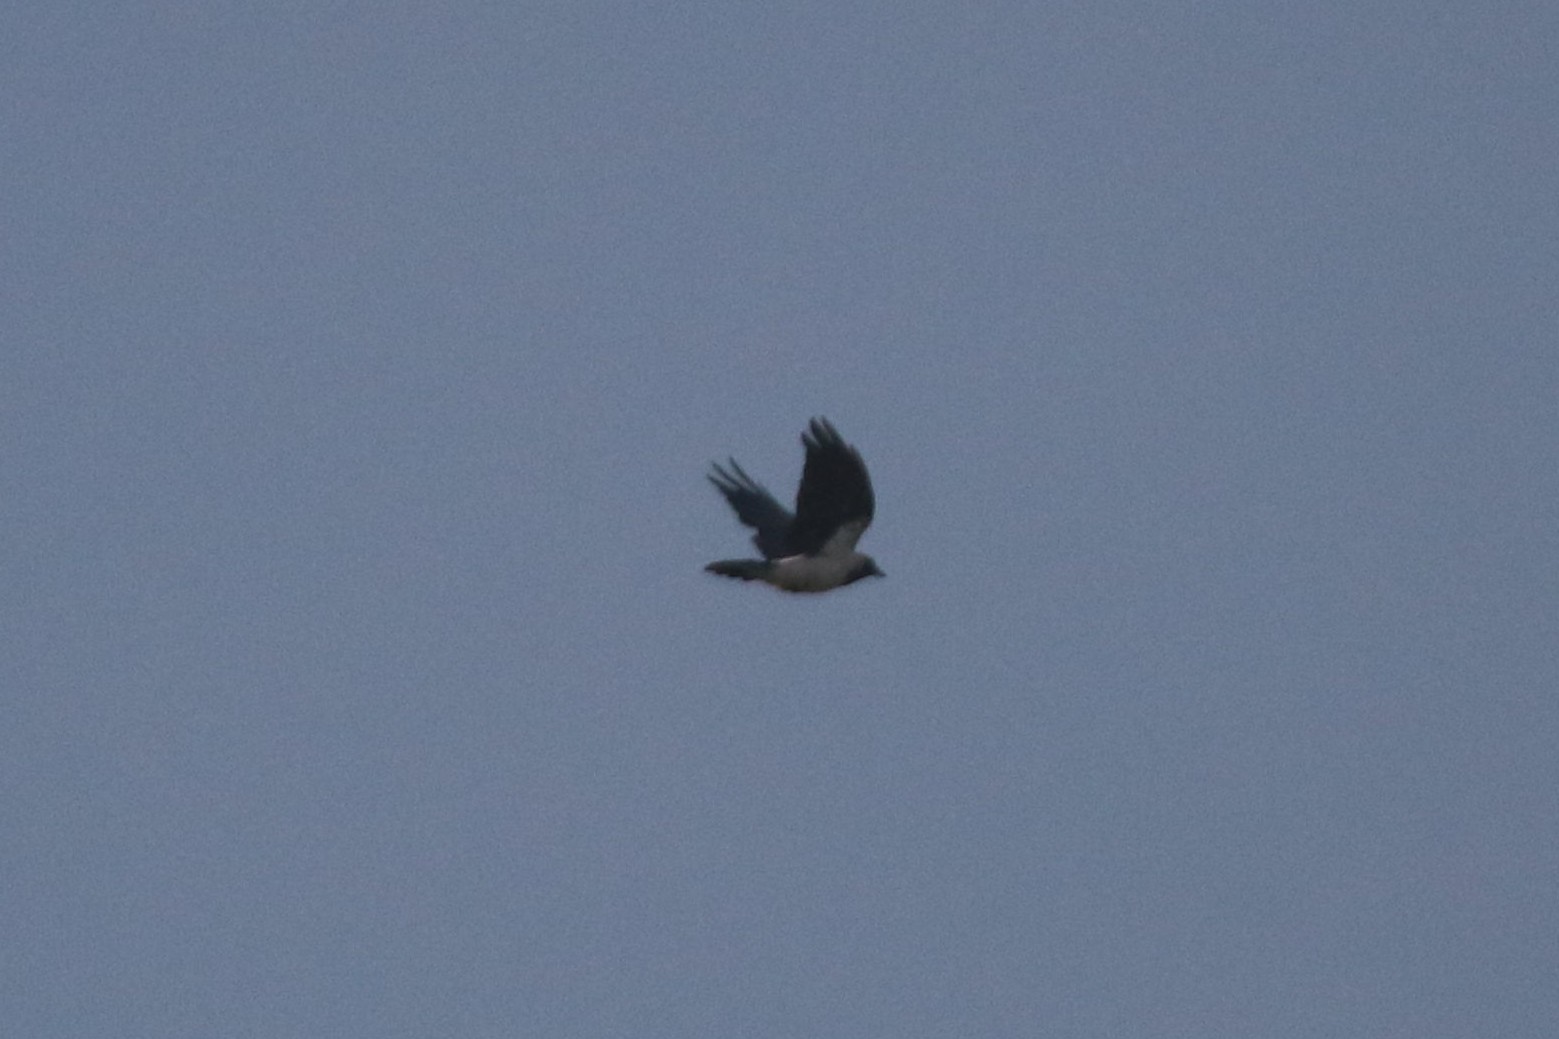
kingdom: Animalia
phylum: Chordata
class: Aves
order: Passeriformes
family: Corvidae
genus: Corvus
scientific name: Corvus cornix
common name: Hooded crow
